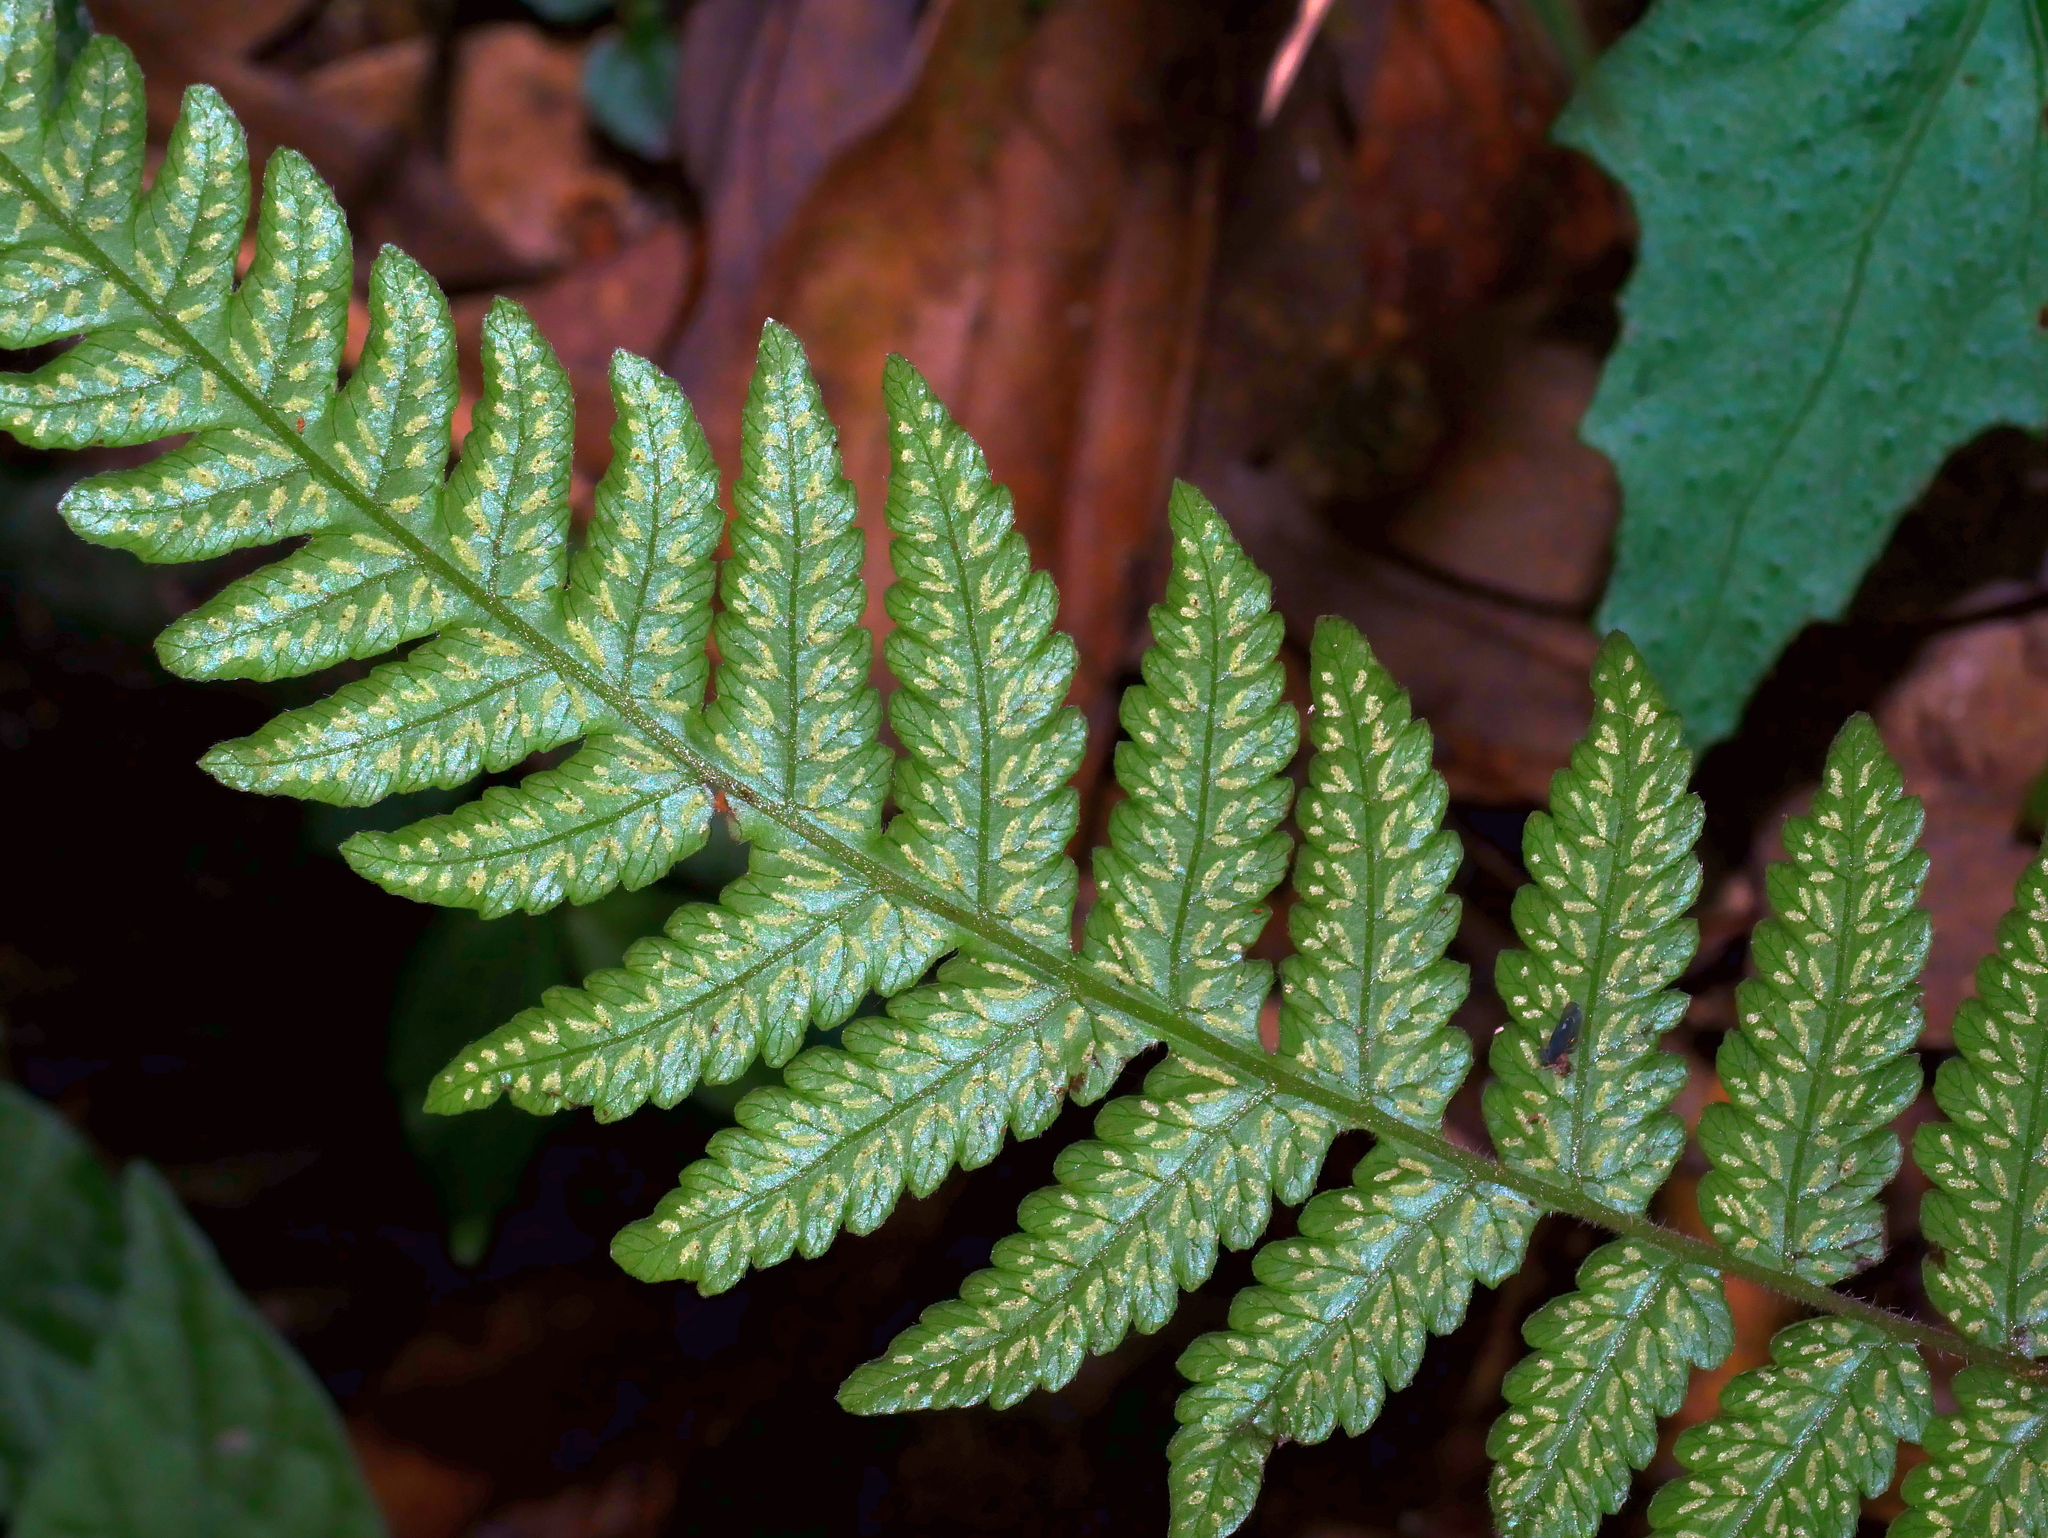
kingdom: Plantae
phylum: Tracheophyta
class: Polypodiopsida
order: Polypodiales
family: Thelypteridaceae
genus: Leptogramma
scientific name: Leptogramma tottoides
